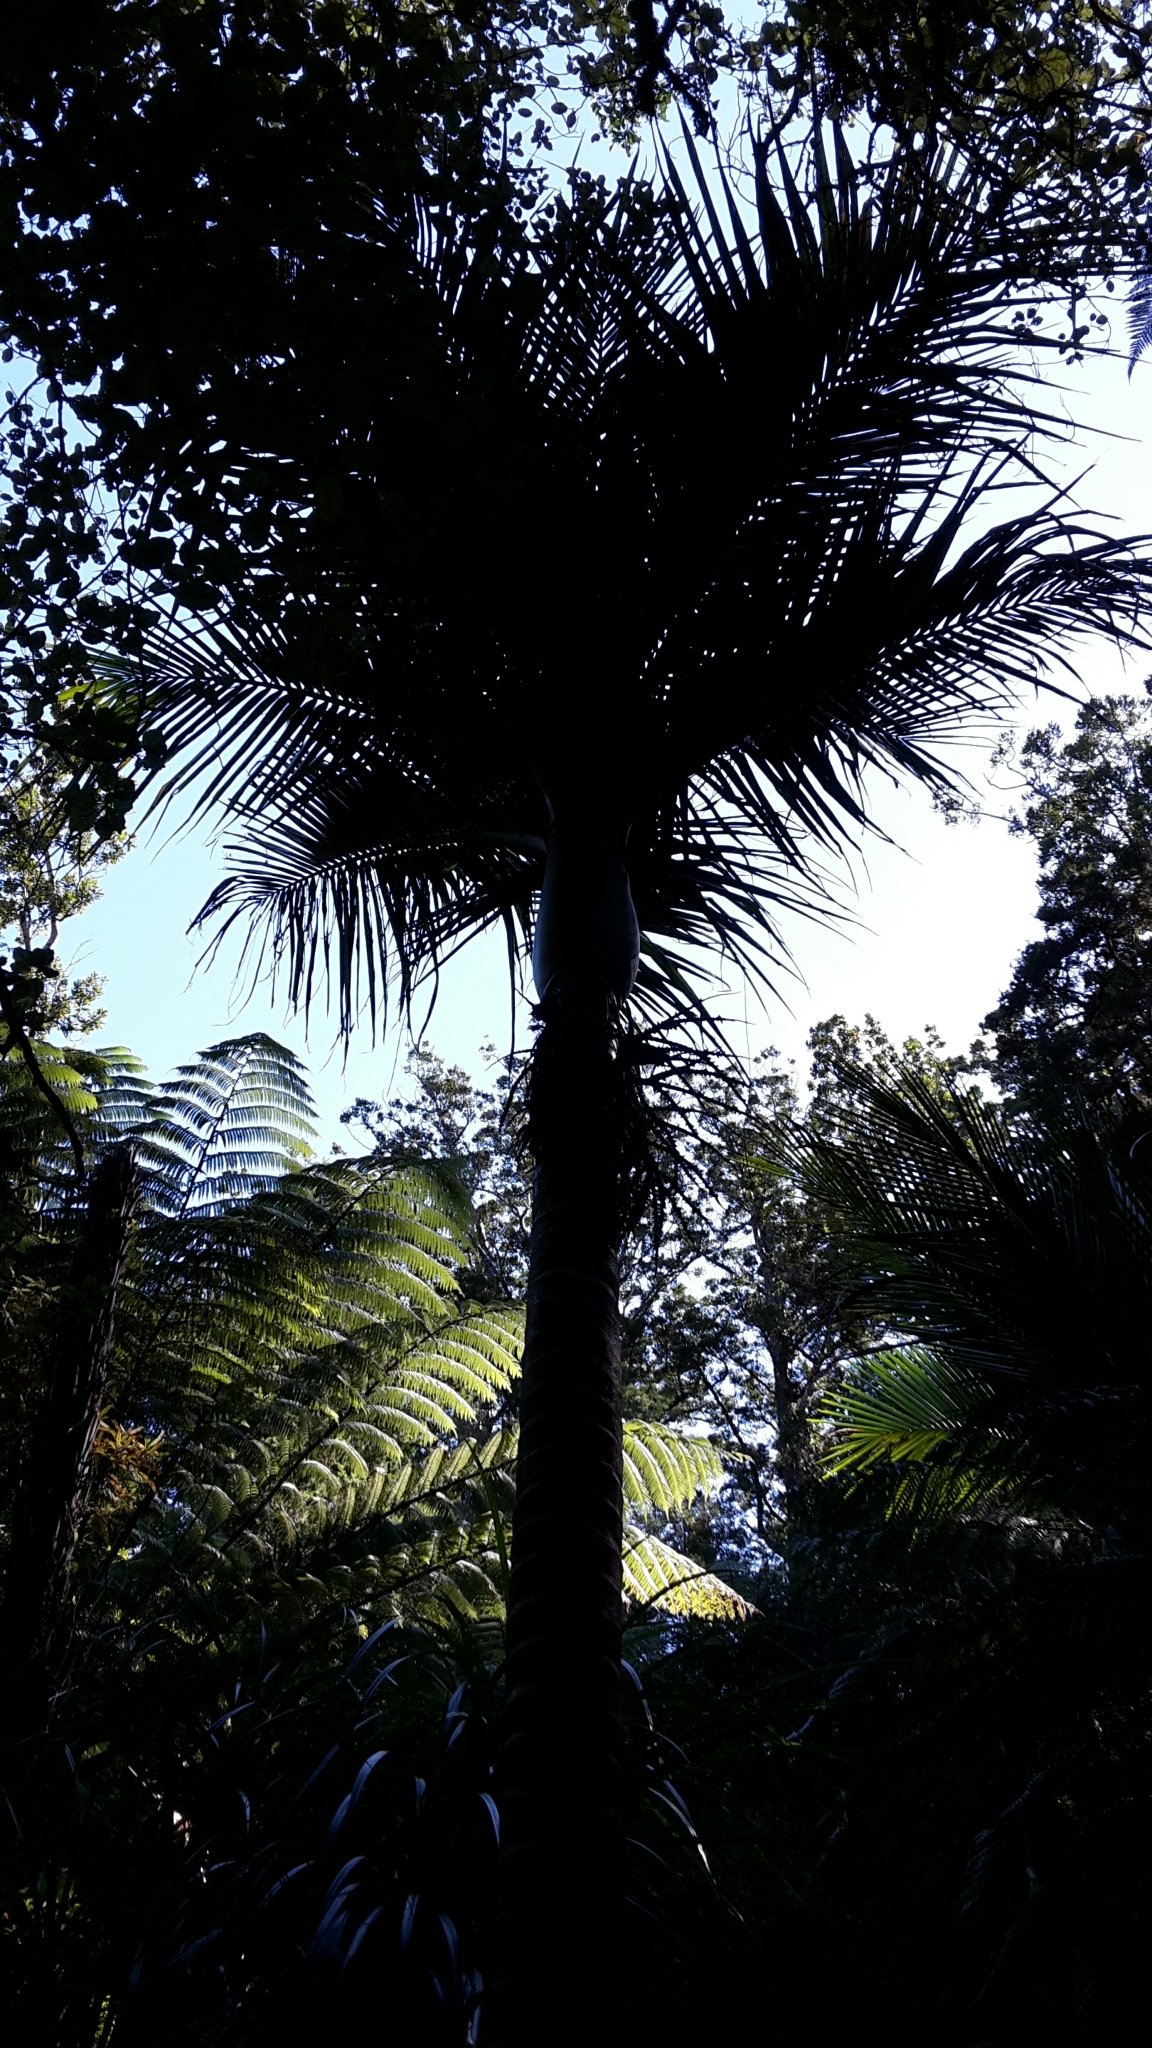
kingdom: Plantae
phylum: Tracheophyta
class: Liliopsida
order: Arecales
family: Arecaceae
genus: Rhopalostylis
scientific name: Rhopalostylis sapida
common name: Feather-duster palm
